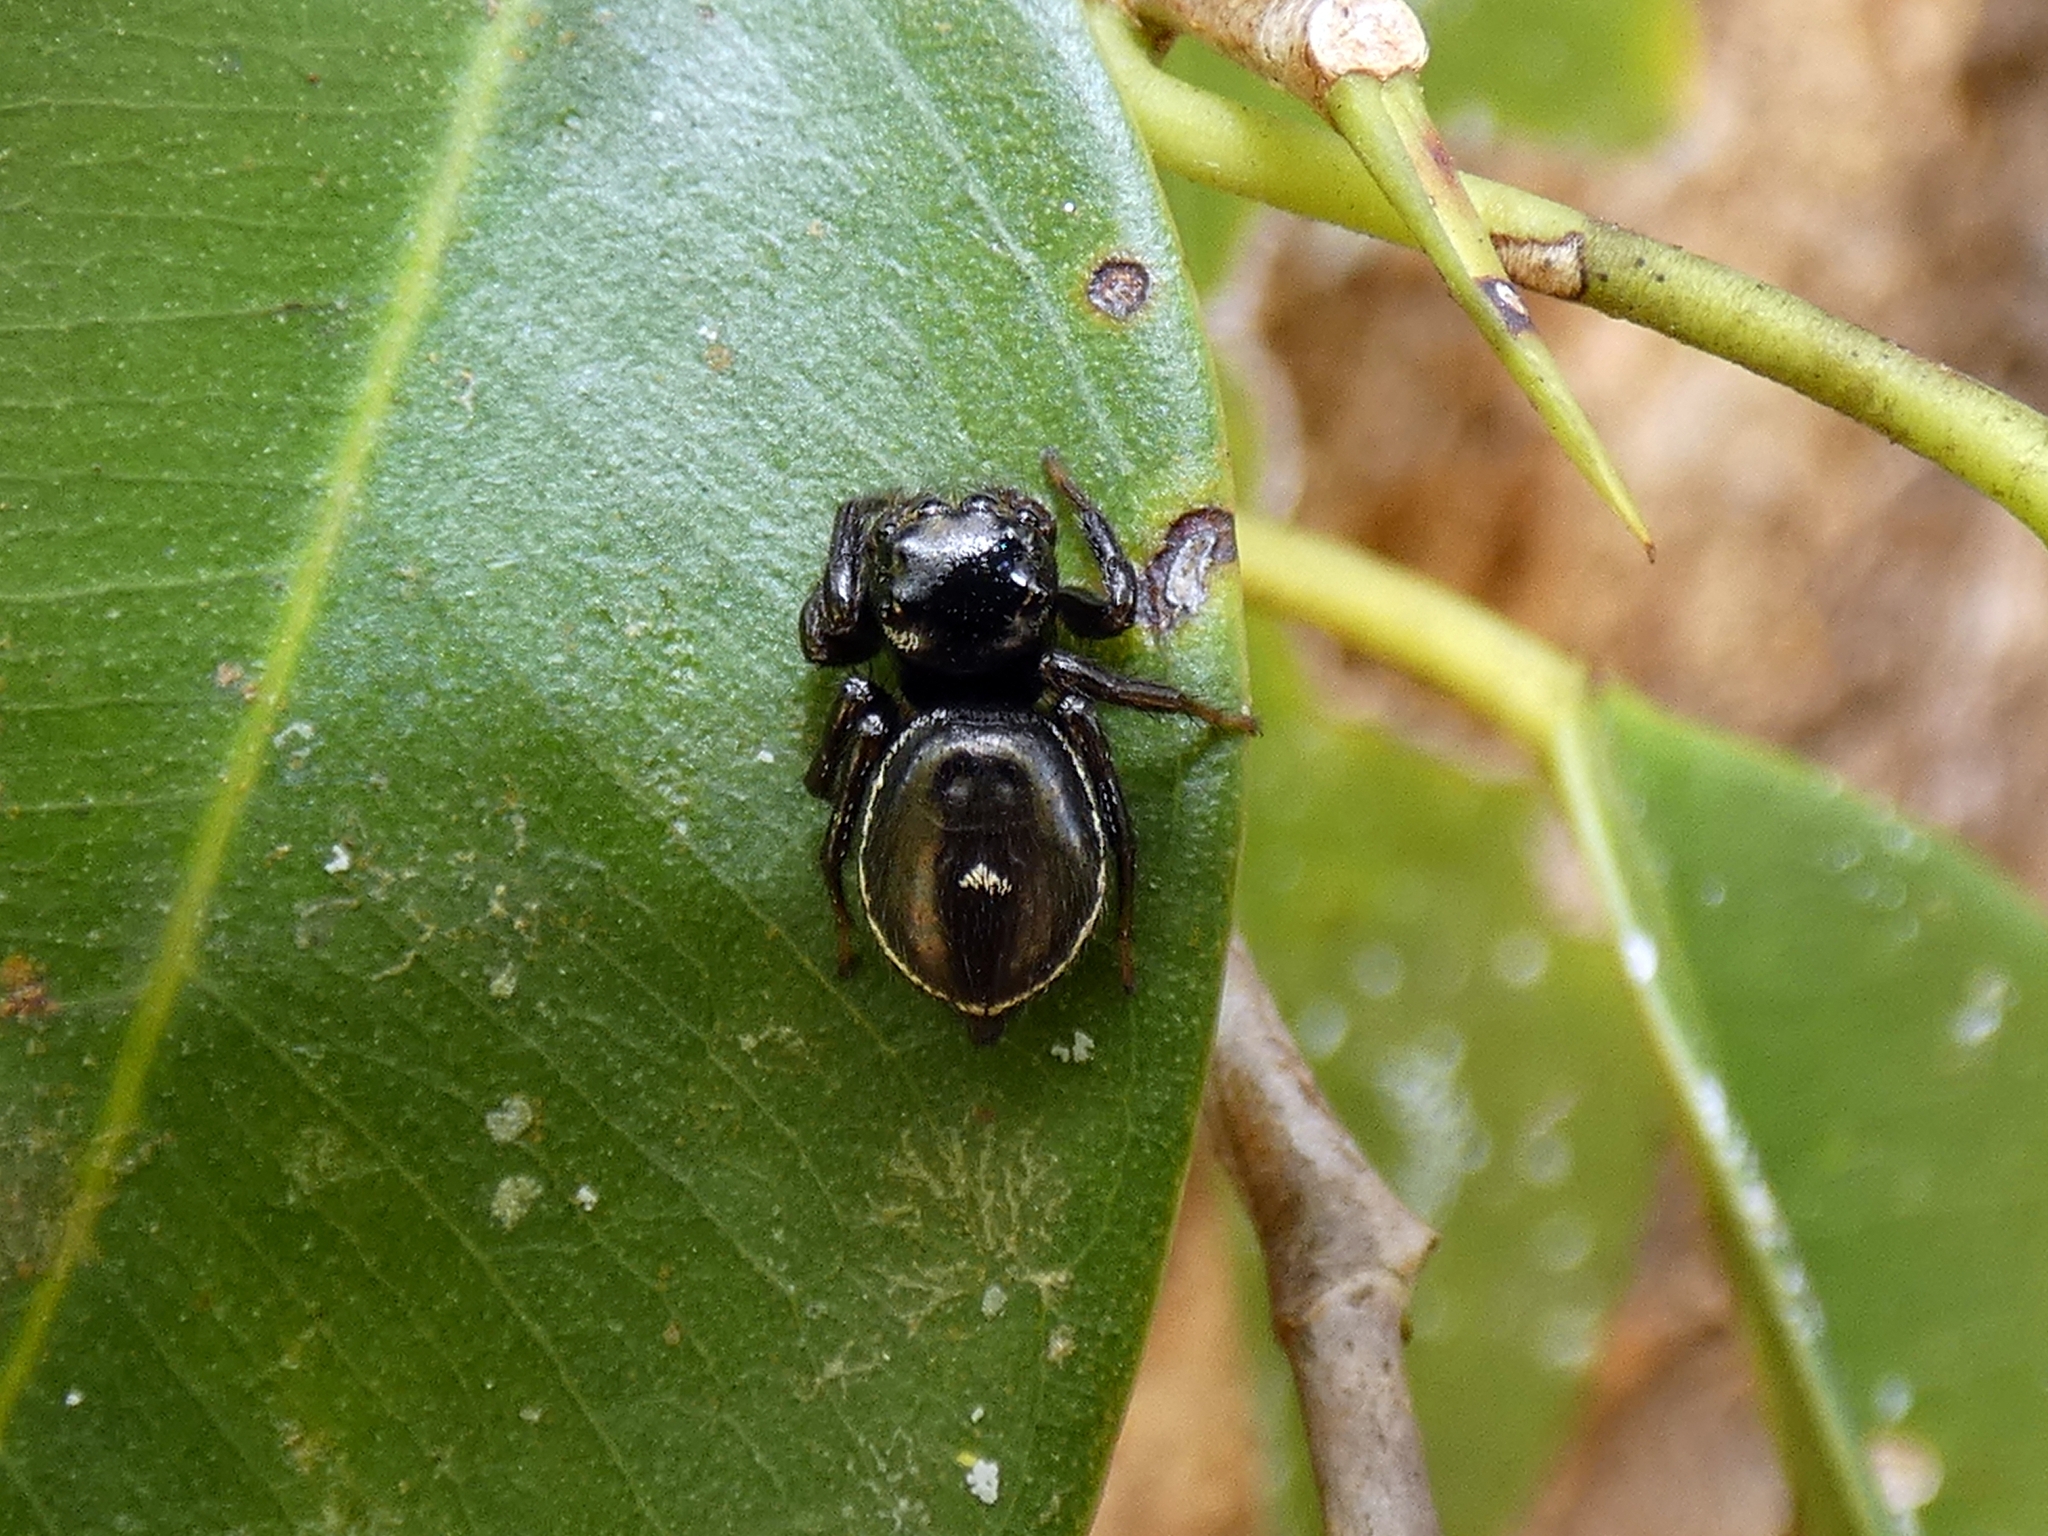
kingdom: Animalia
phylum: Arthropoda
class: Arachnida
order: Araneae
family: Salticidae
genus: Zenodorus
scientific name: Zenodorus orbiculatus
